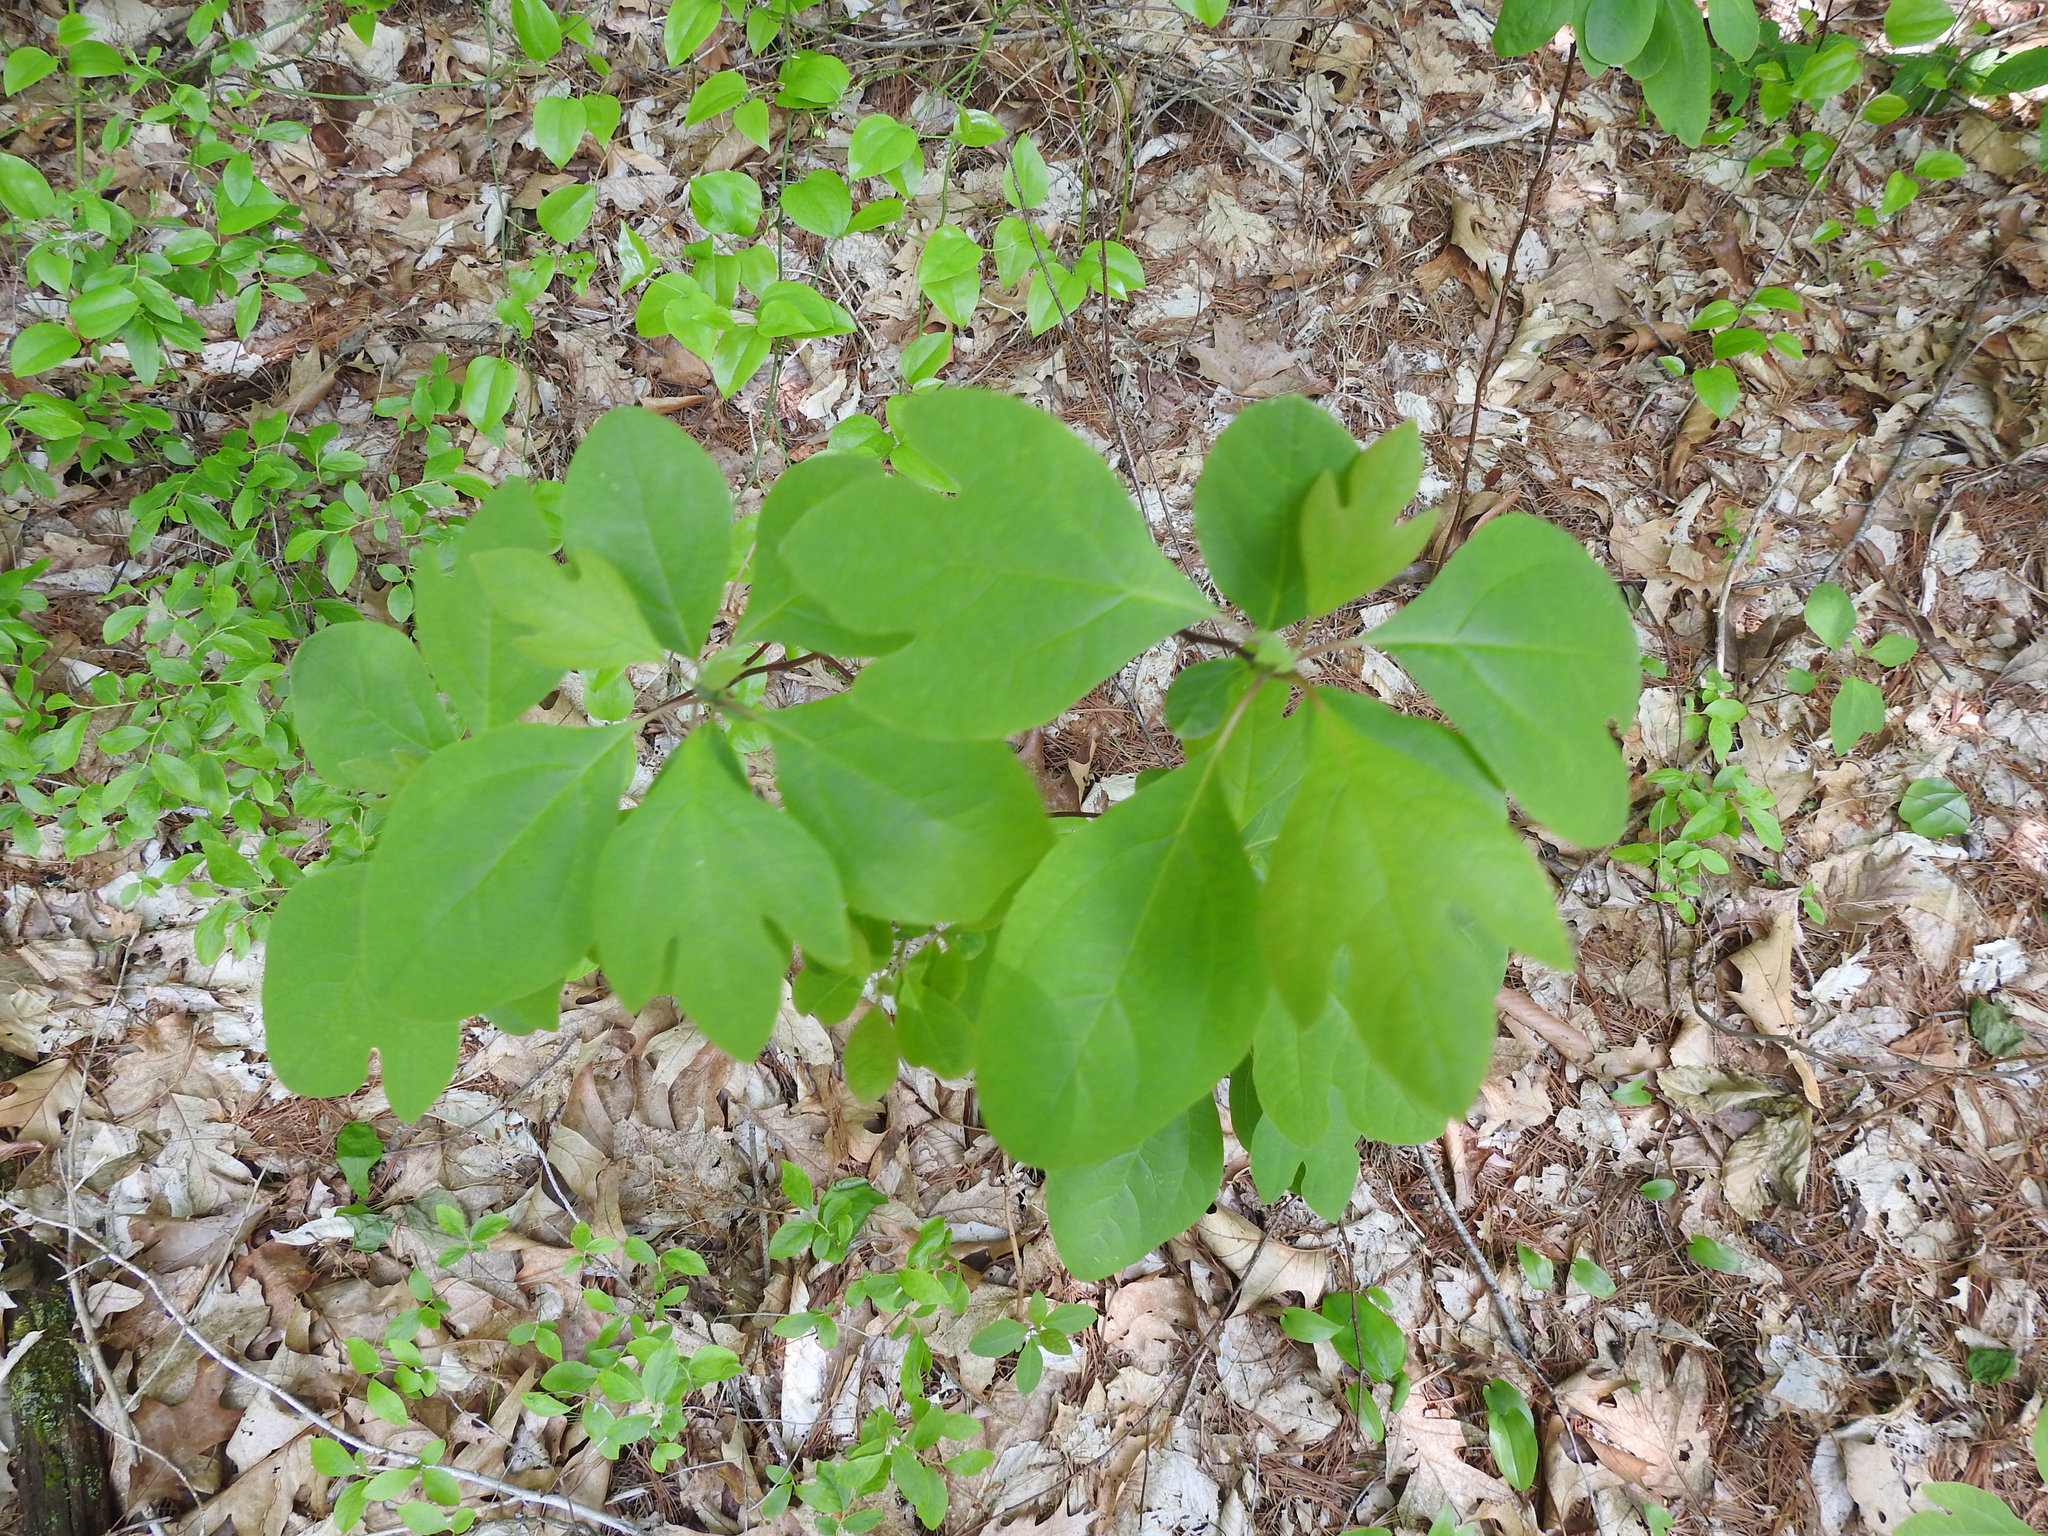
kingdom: Plantae
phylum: Tracheophyta
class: Magnoliopsida
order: Laurales
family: Lauraceae
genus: Sassafras
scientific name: Sassafras albidum
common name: Sassafras
